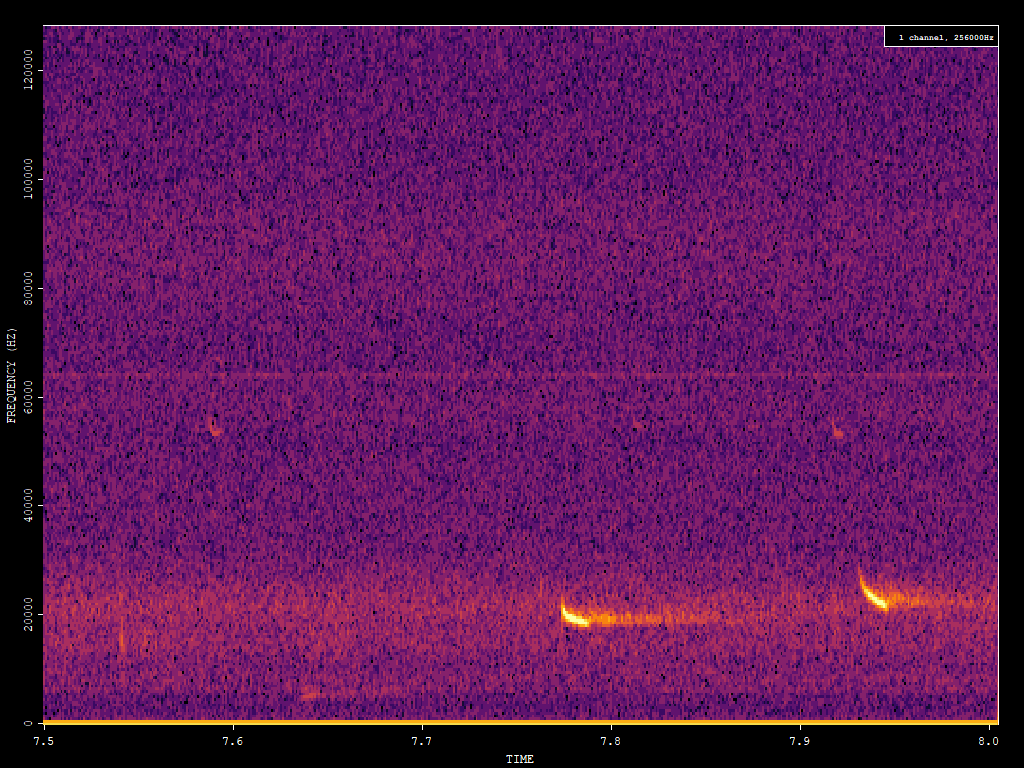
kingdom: Animalia
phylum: Chordata
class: Mammalia
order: Chiroptera
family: Vespertilionidae
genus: Nyctalus
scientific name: Nyctalus noctula
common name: Noctule
